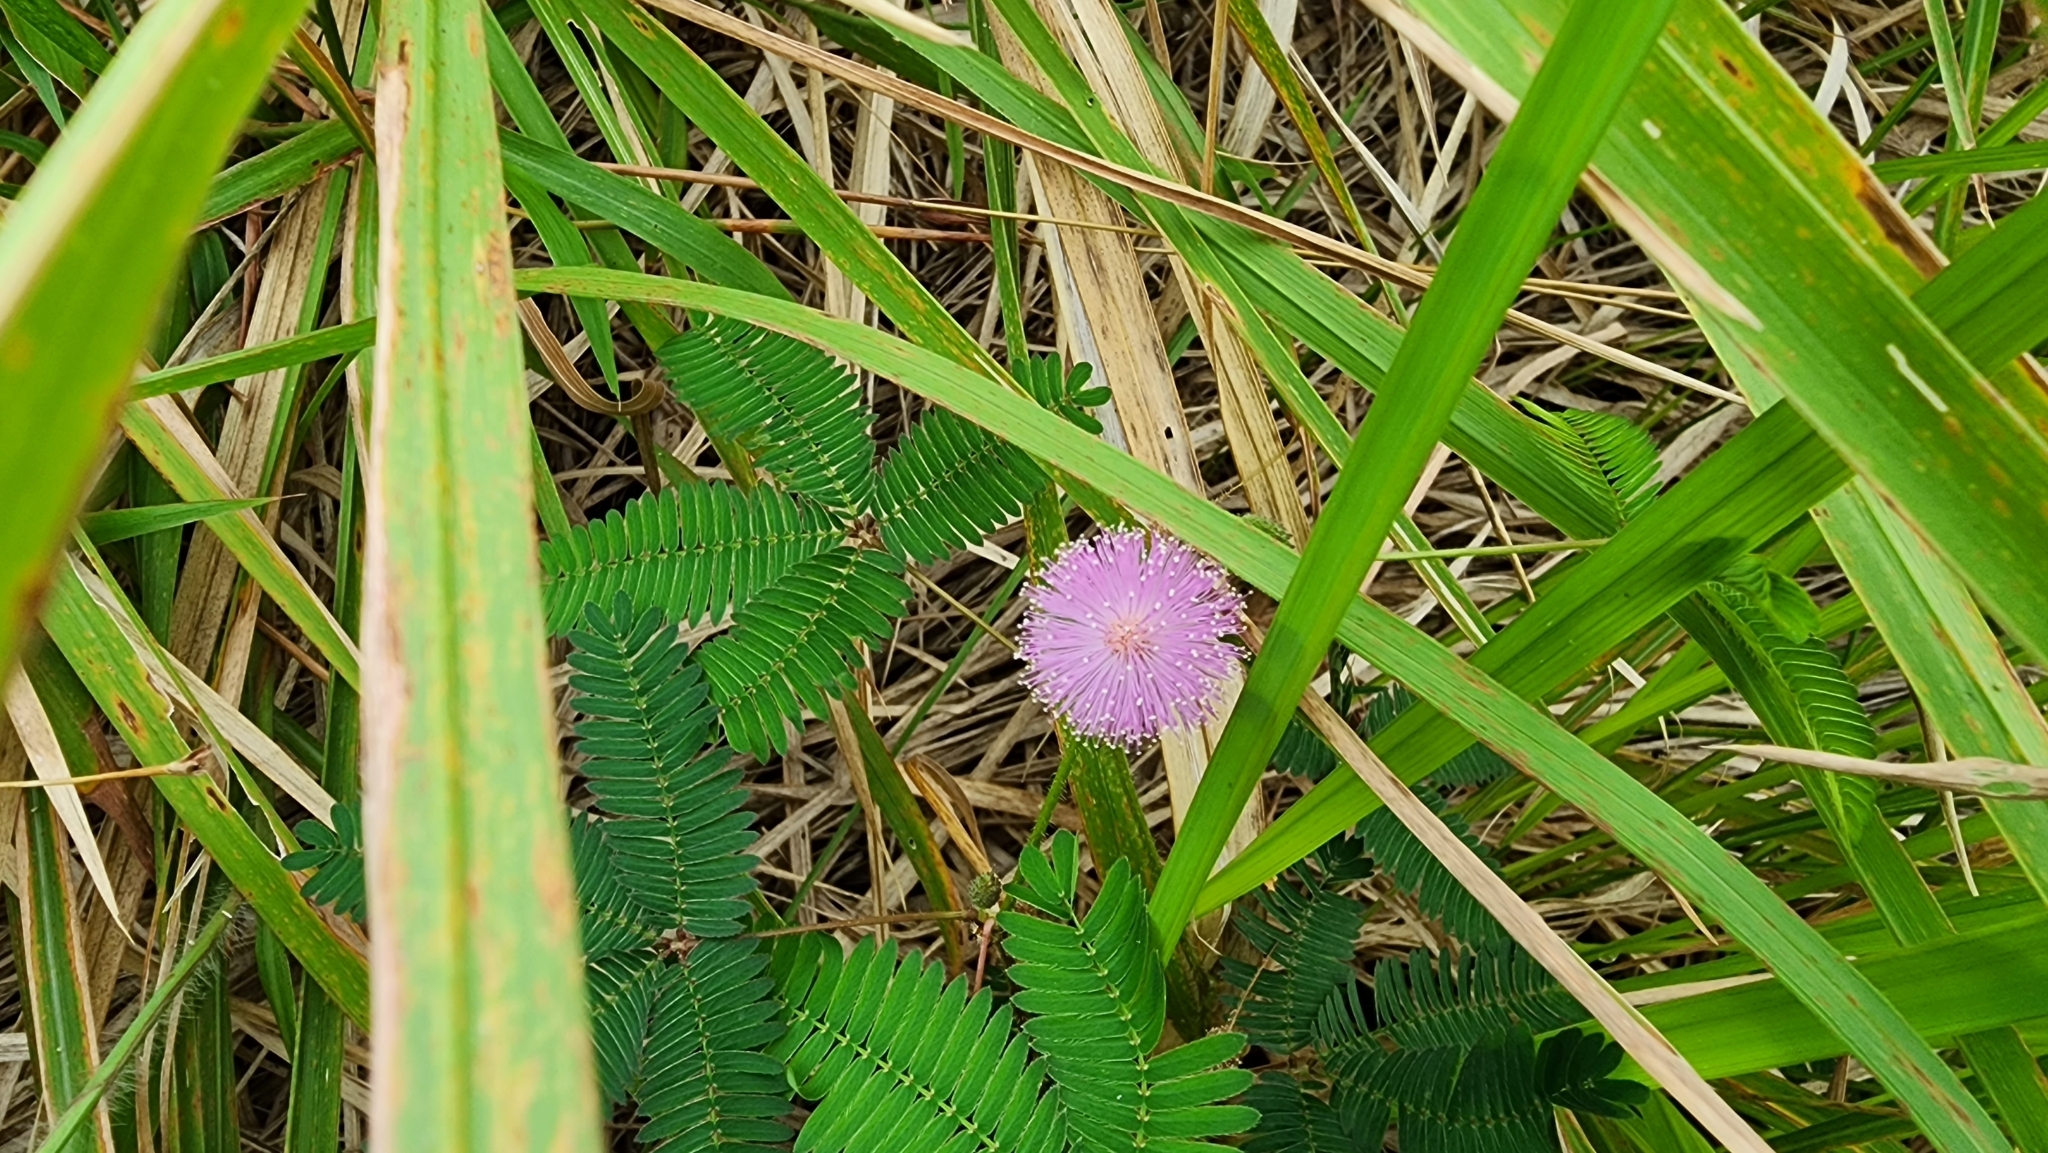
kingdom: Plantae
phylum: Tracheophyta
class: Magnoliopsida
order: Fabales
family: Fabaceae
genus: Mimosa
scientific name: Mimosa pudica
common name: Sensitive plant
